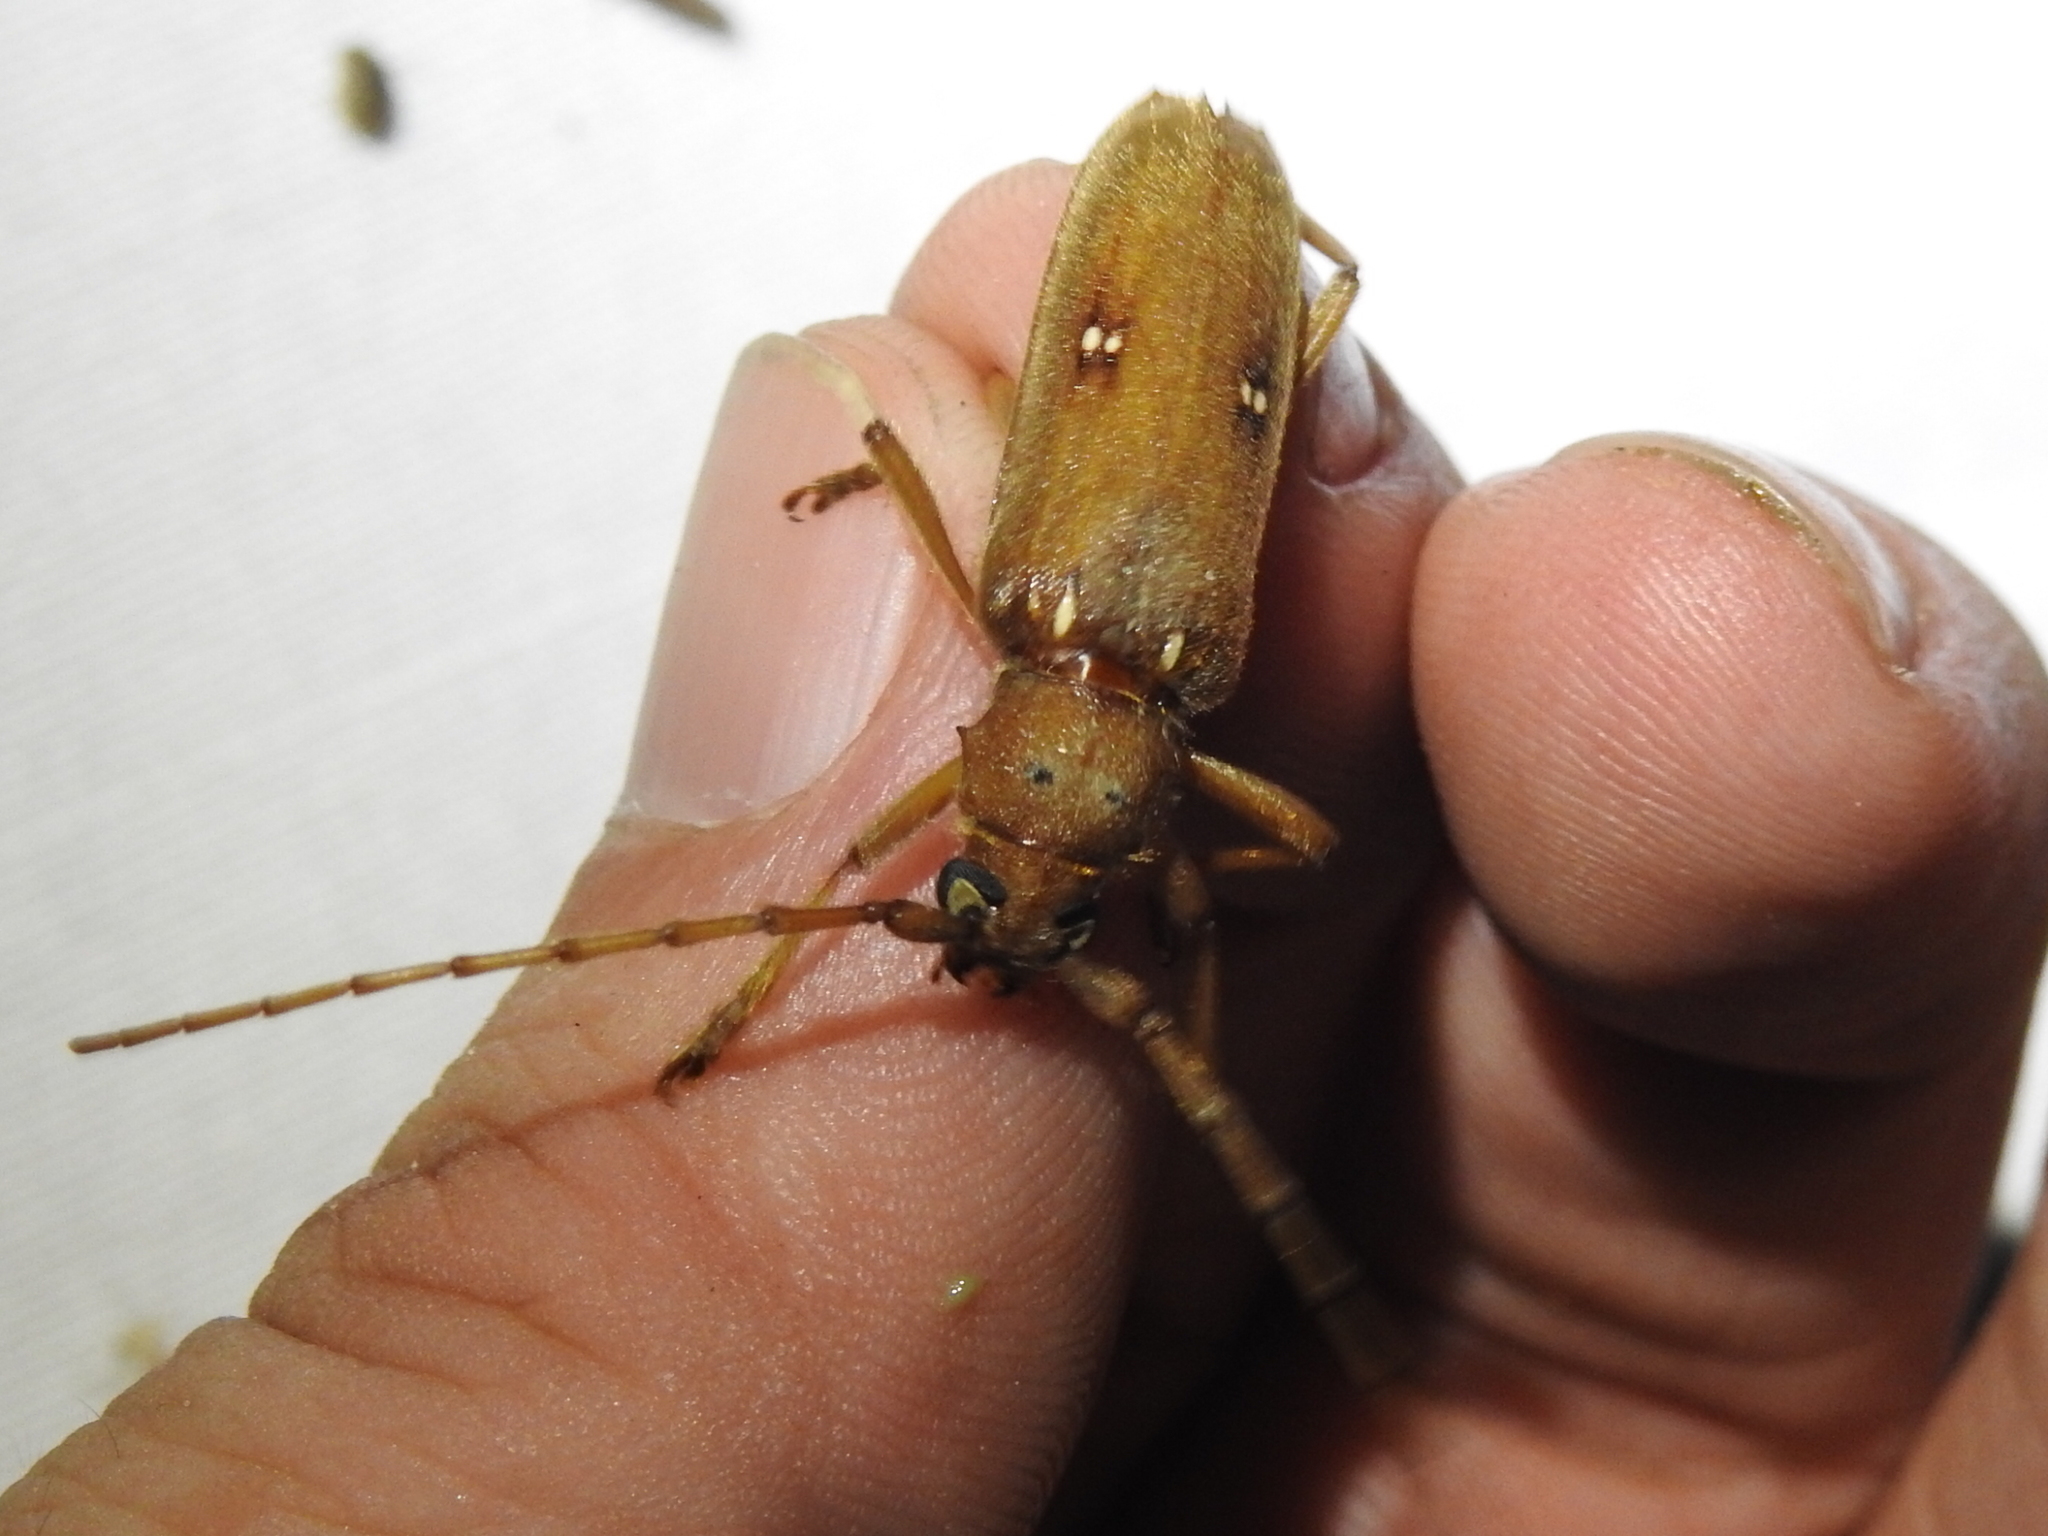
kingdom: Animalia
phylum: Arthropoda
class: Insecta
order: Coleoptera
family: Cerambycidae
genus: Eburia
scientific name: Eburia haldemani
